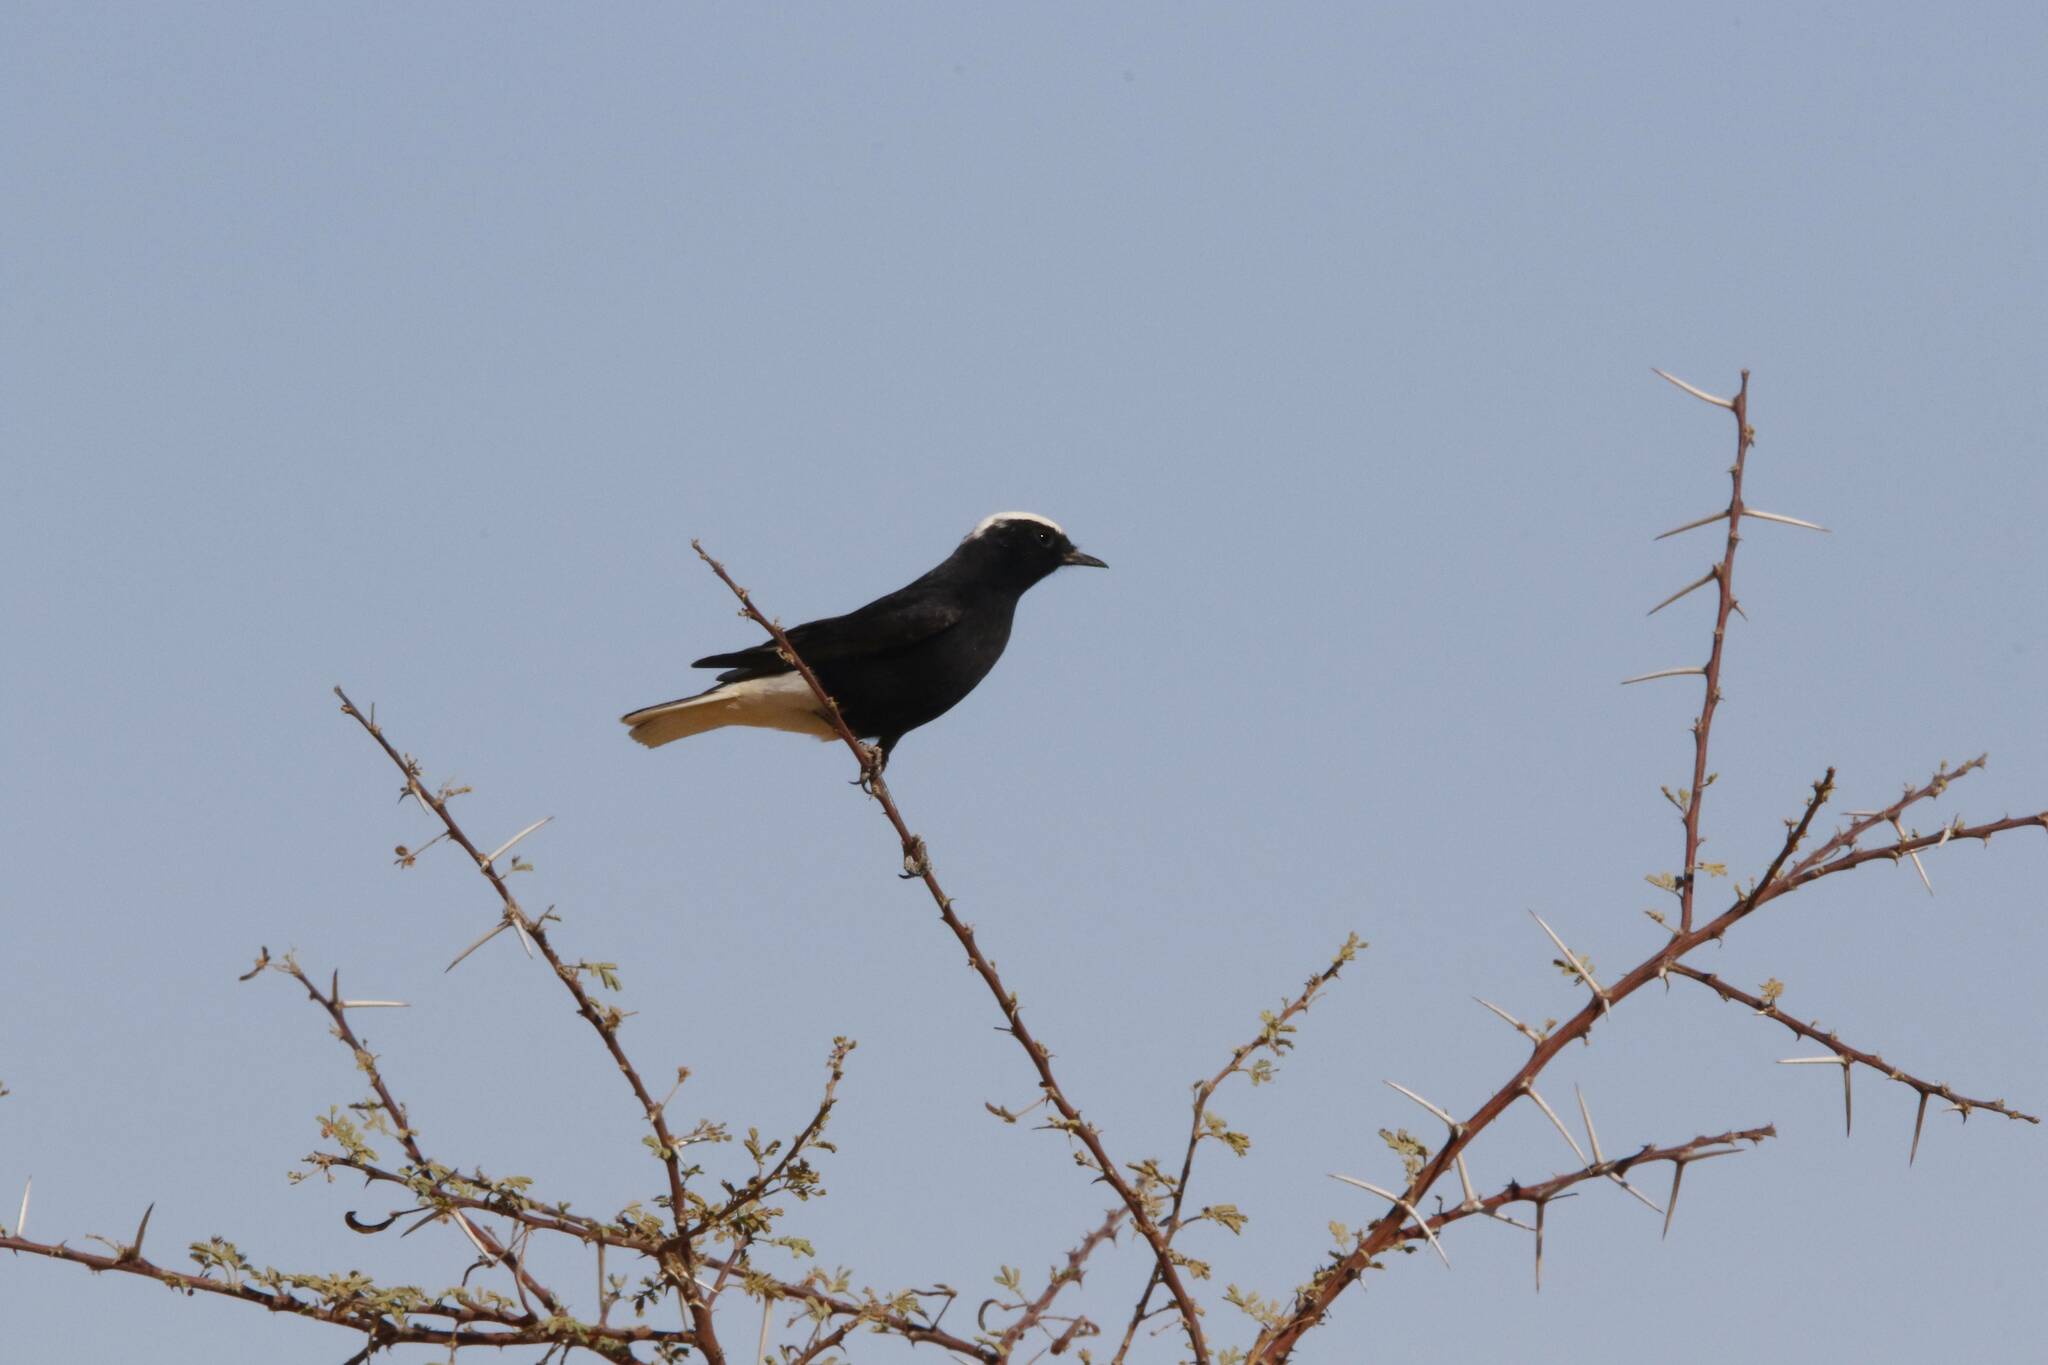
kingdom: Animalia
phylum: Chordata
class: Aves
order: Passeriformes
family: Muscicapidae
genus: Oenanthe
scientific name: Oenanthe leucopyga
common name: White-crowned wheatear
